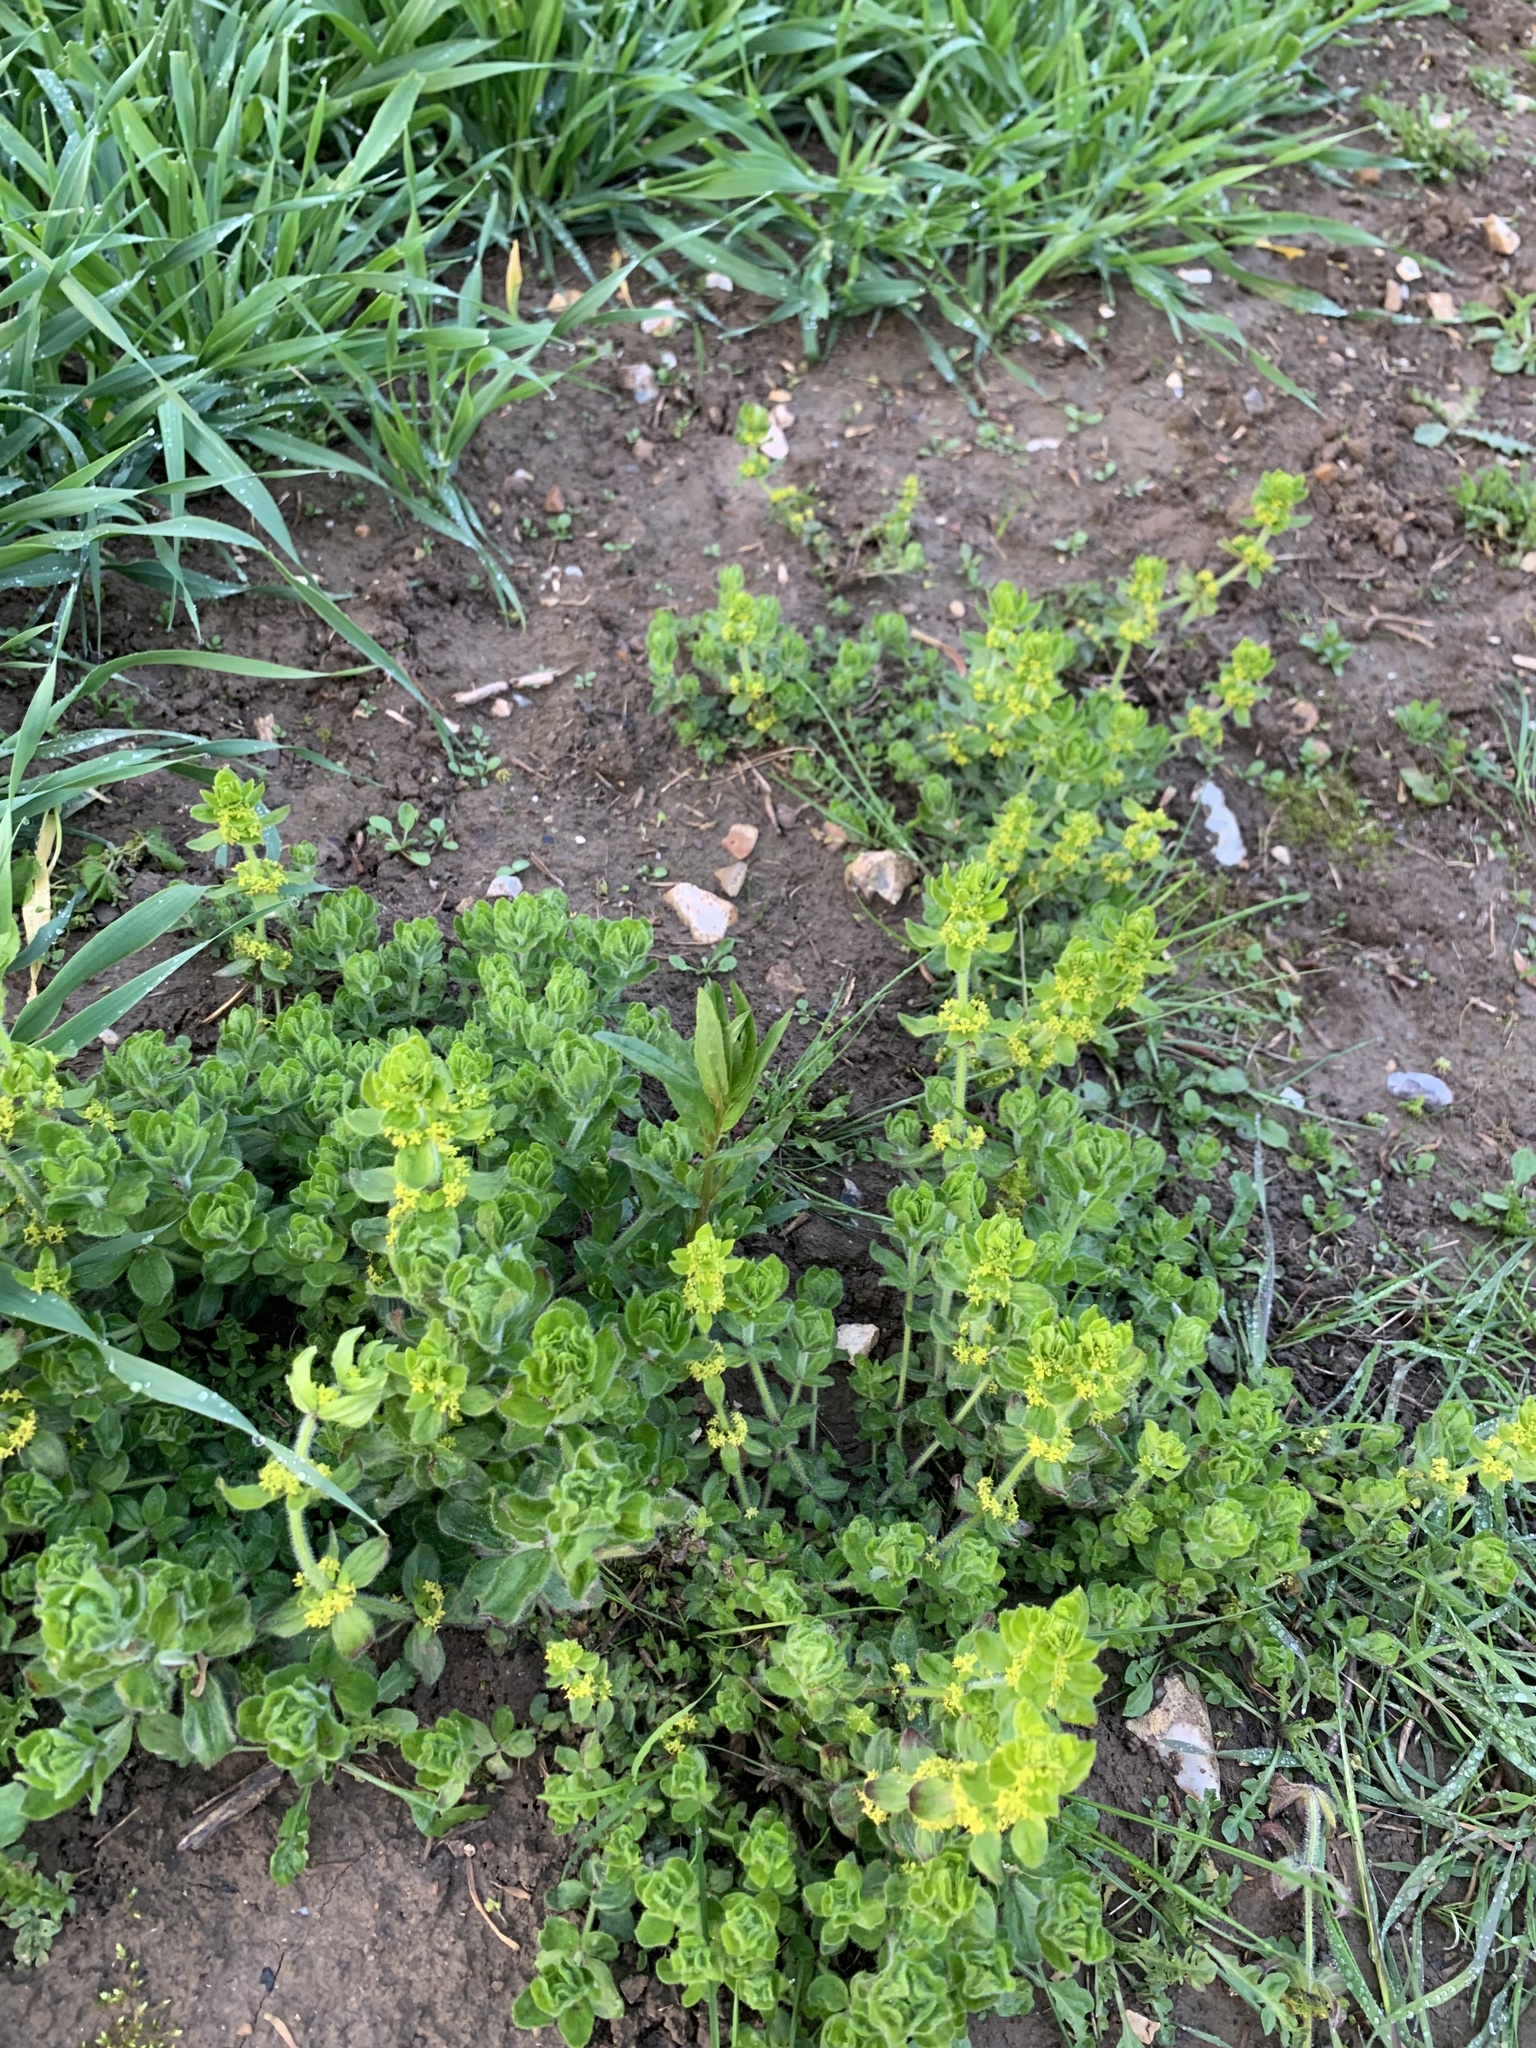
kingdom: Plantae
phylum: Tracheophyta
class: Magnoliopsida
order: Gentianales
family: Rubiaceae
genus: Cruciata
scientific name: Cruciata laevipes
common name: Crosswort
